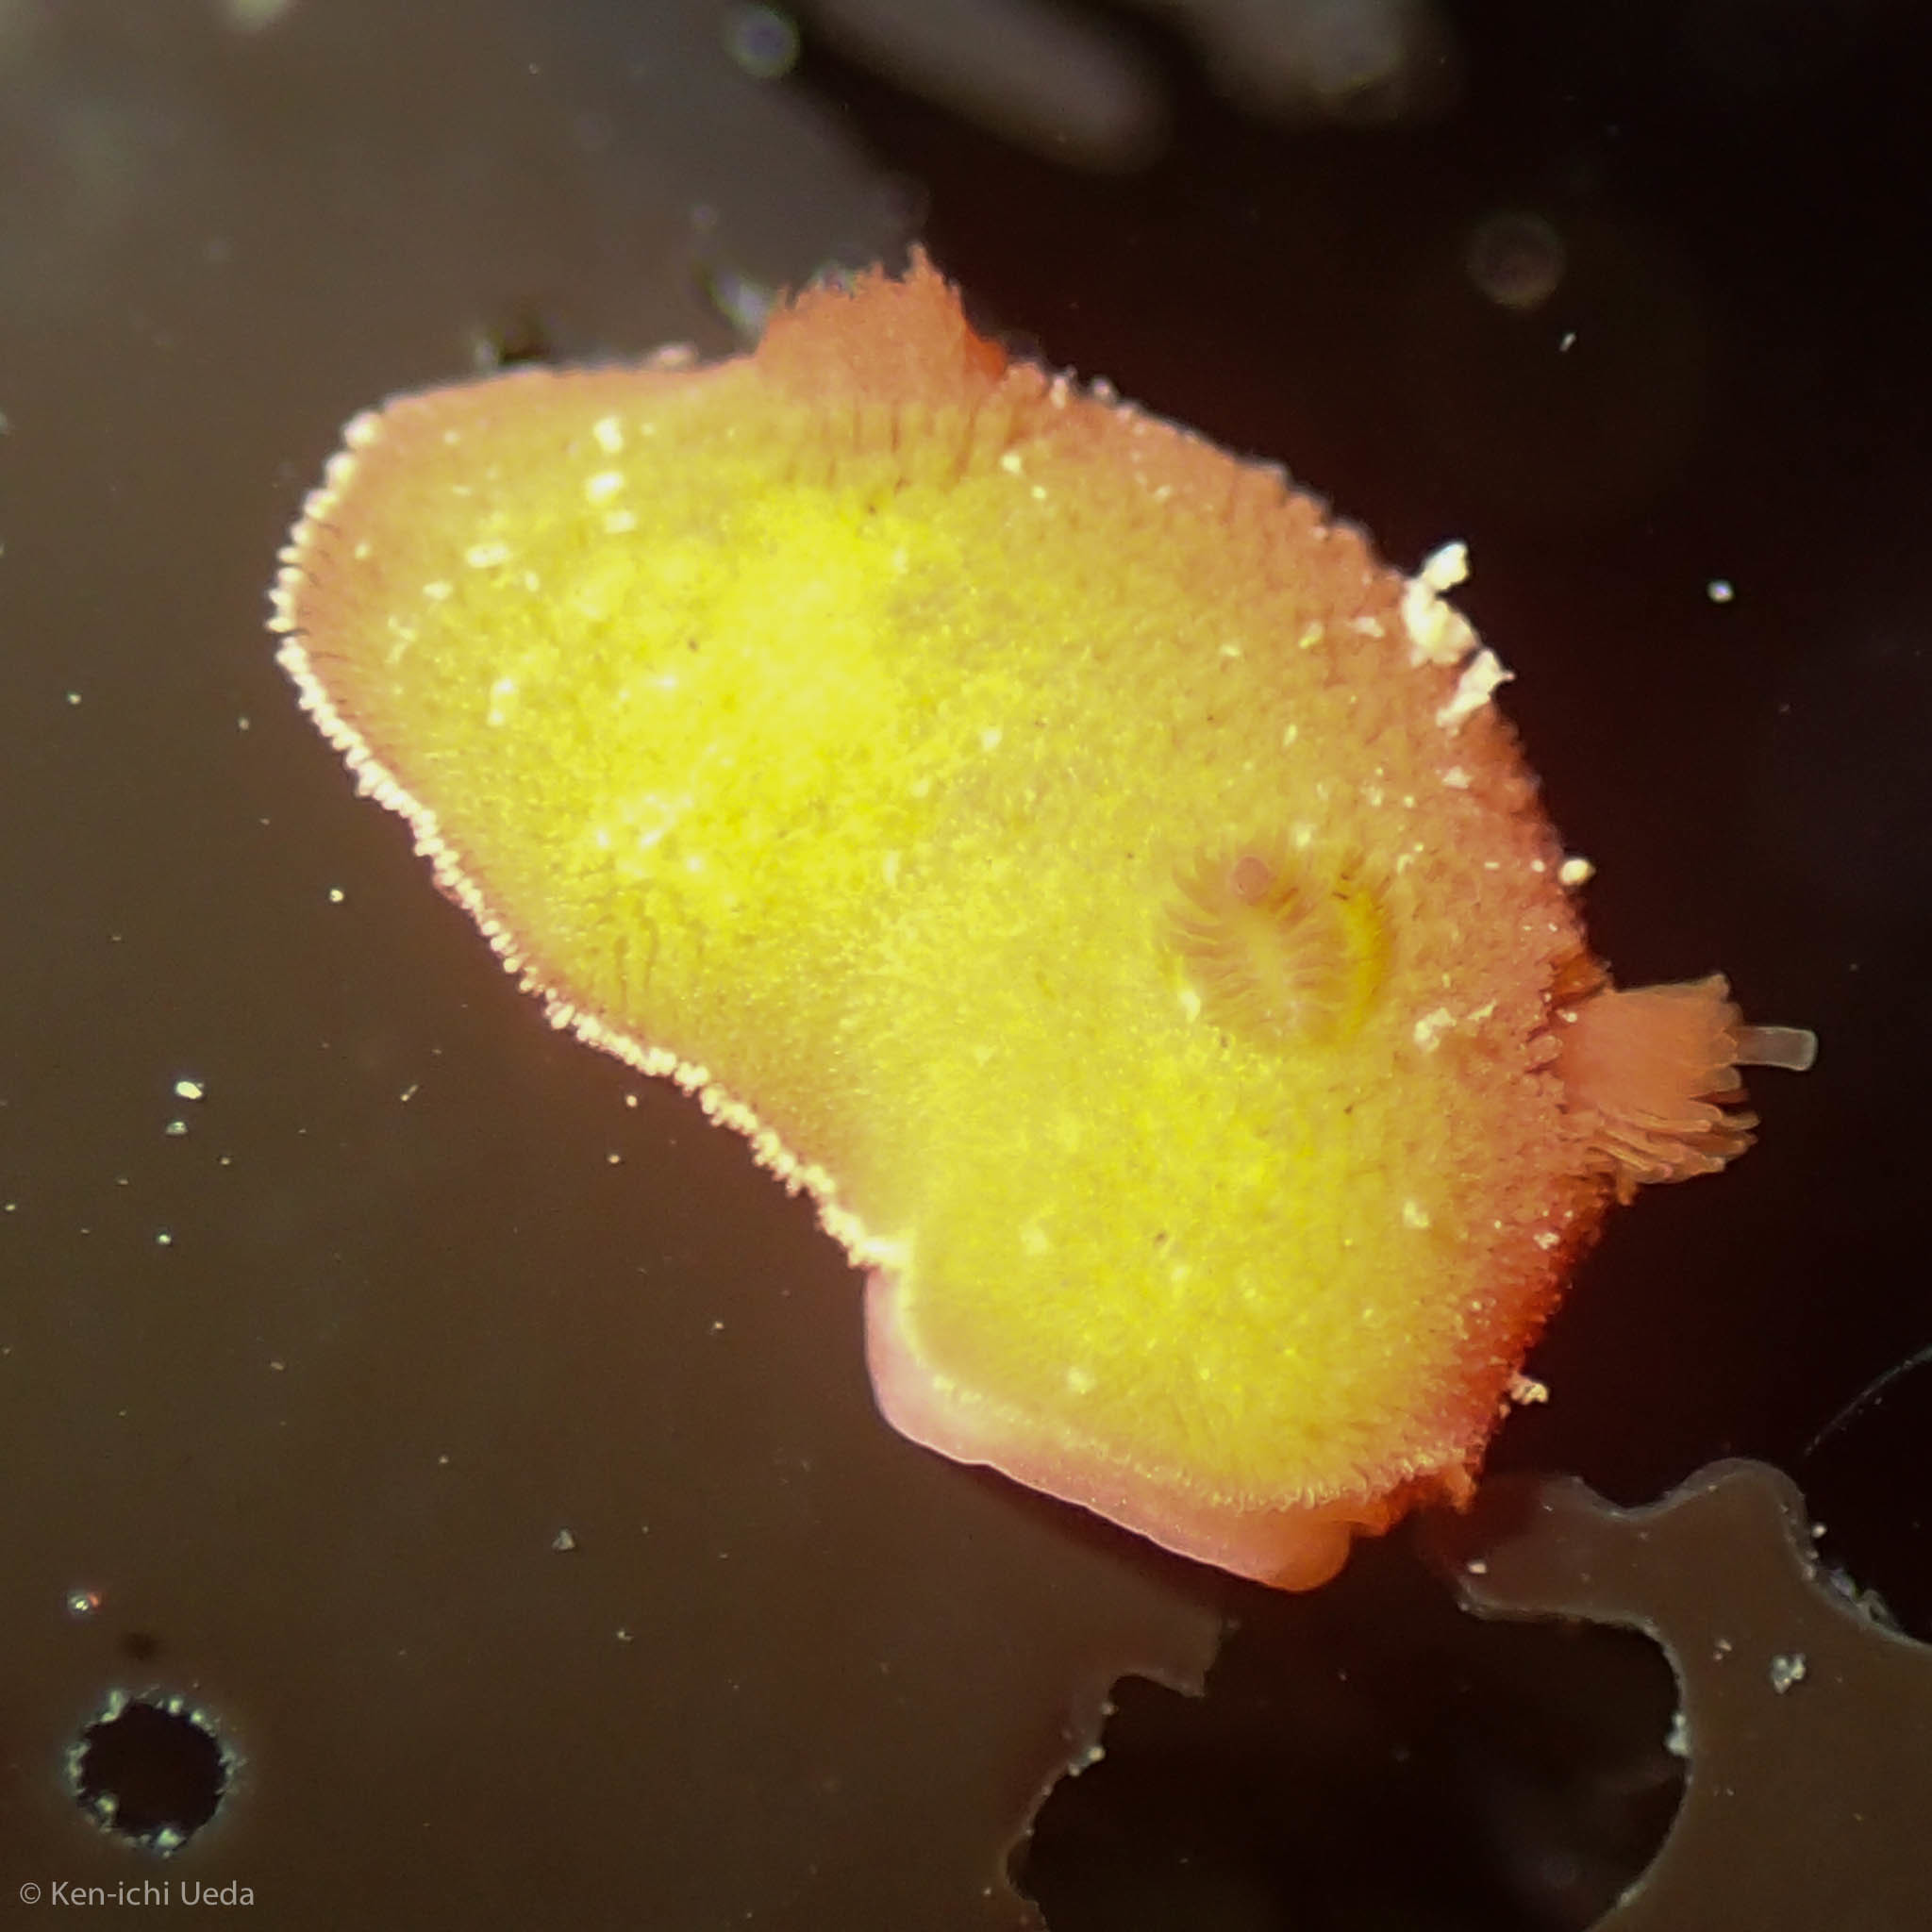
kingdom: Animalia
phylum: Mollusca
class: Gastropoda
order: Nudibranchia
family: Discodorididae
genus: Rostanga
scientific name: Rostanga pulchra
